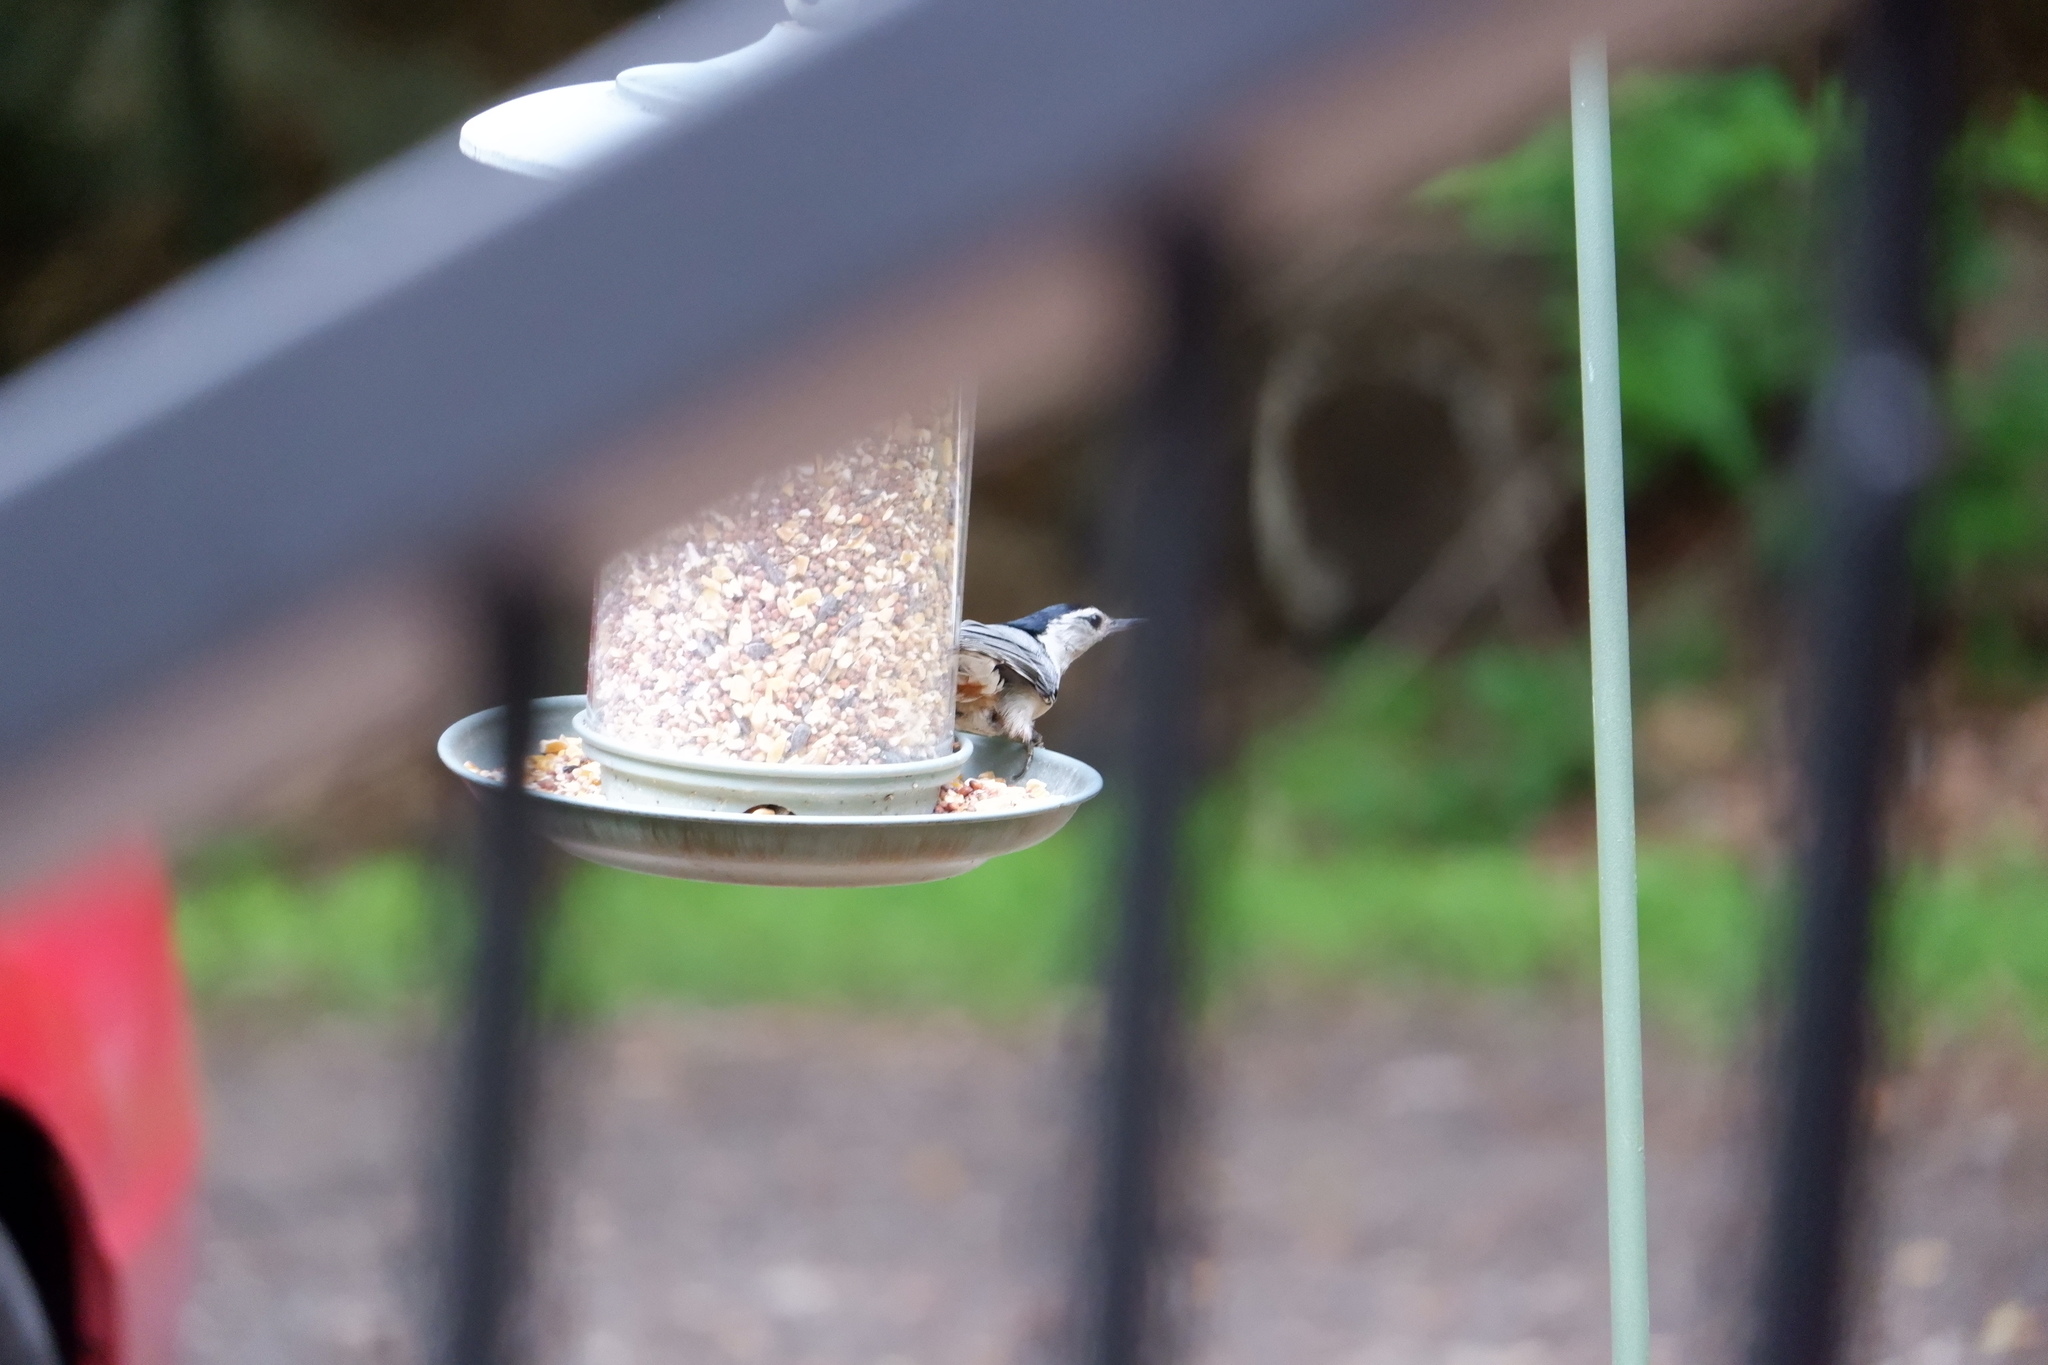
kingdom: Animalia
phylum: Chordata
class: Aves
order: Passeriformes
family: Sittidae
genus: Sitta
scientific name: Sitta carolinensis
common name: White-breasted nuthatch
